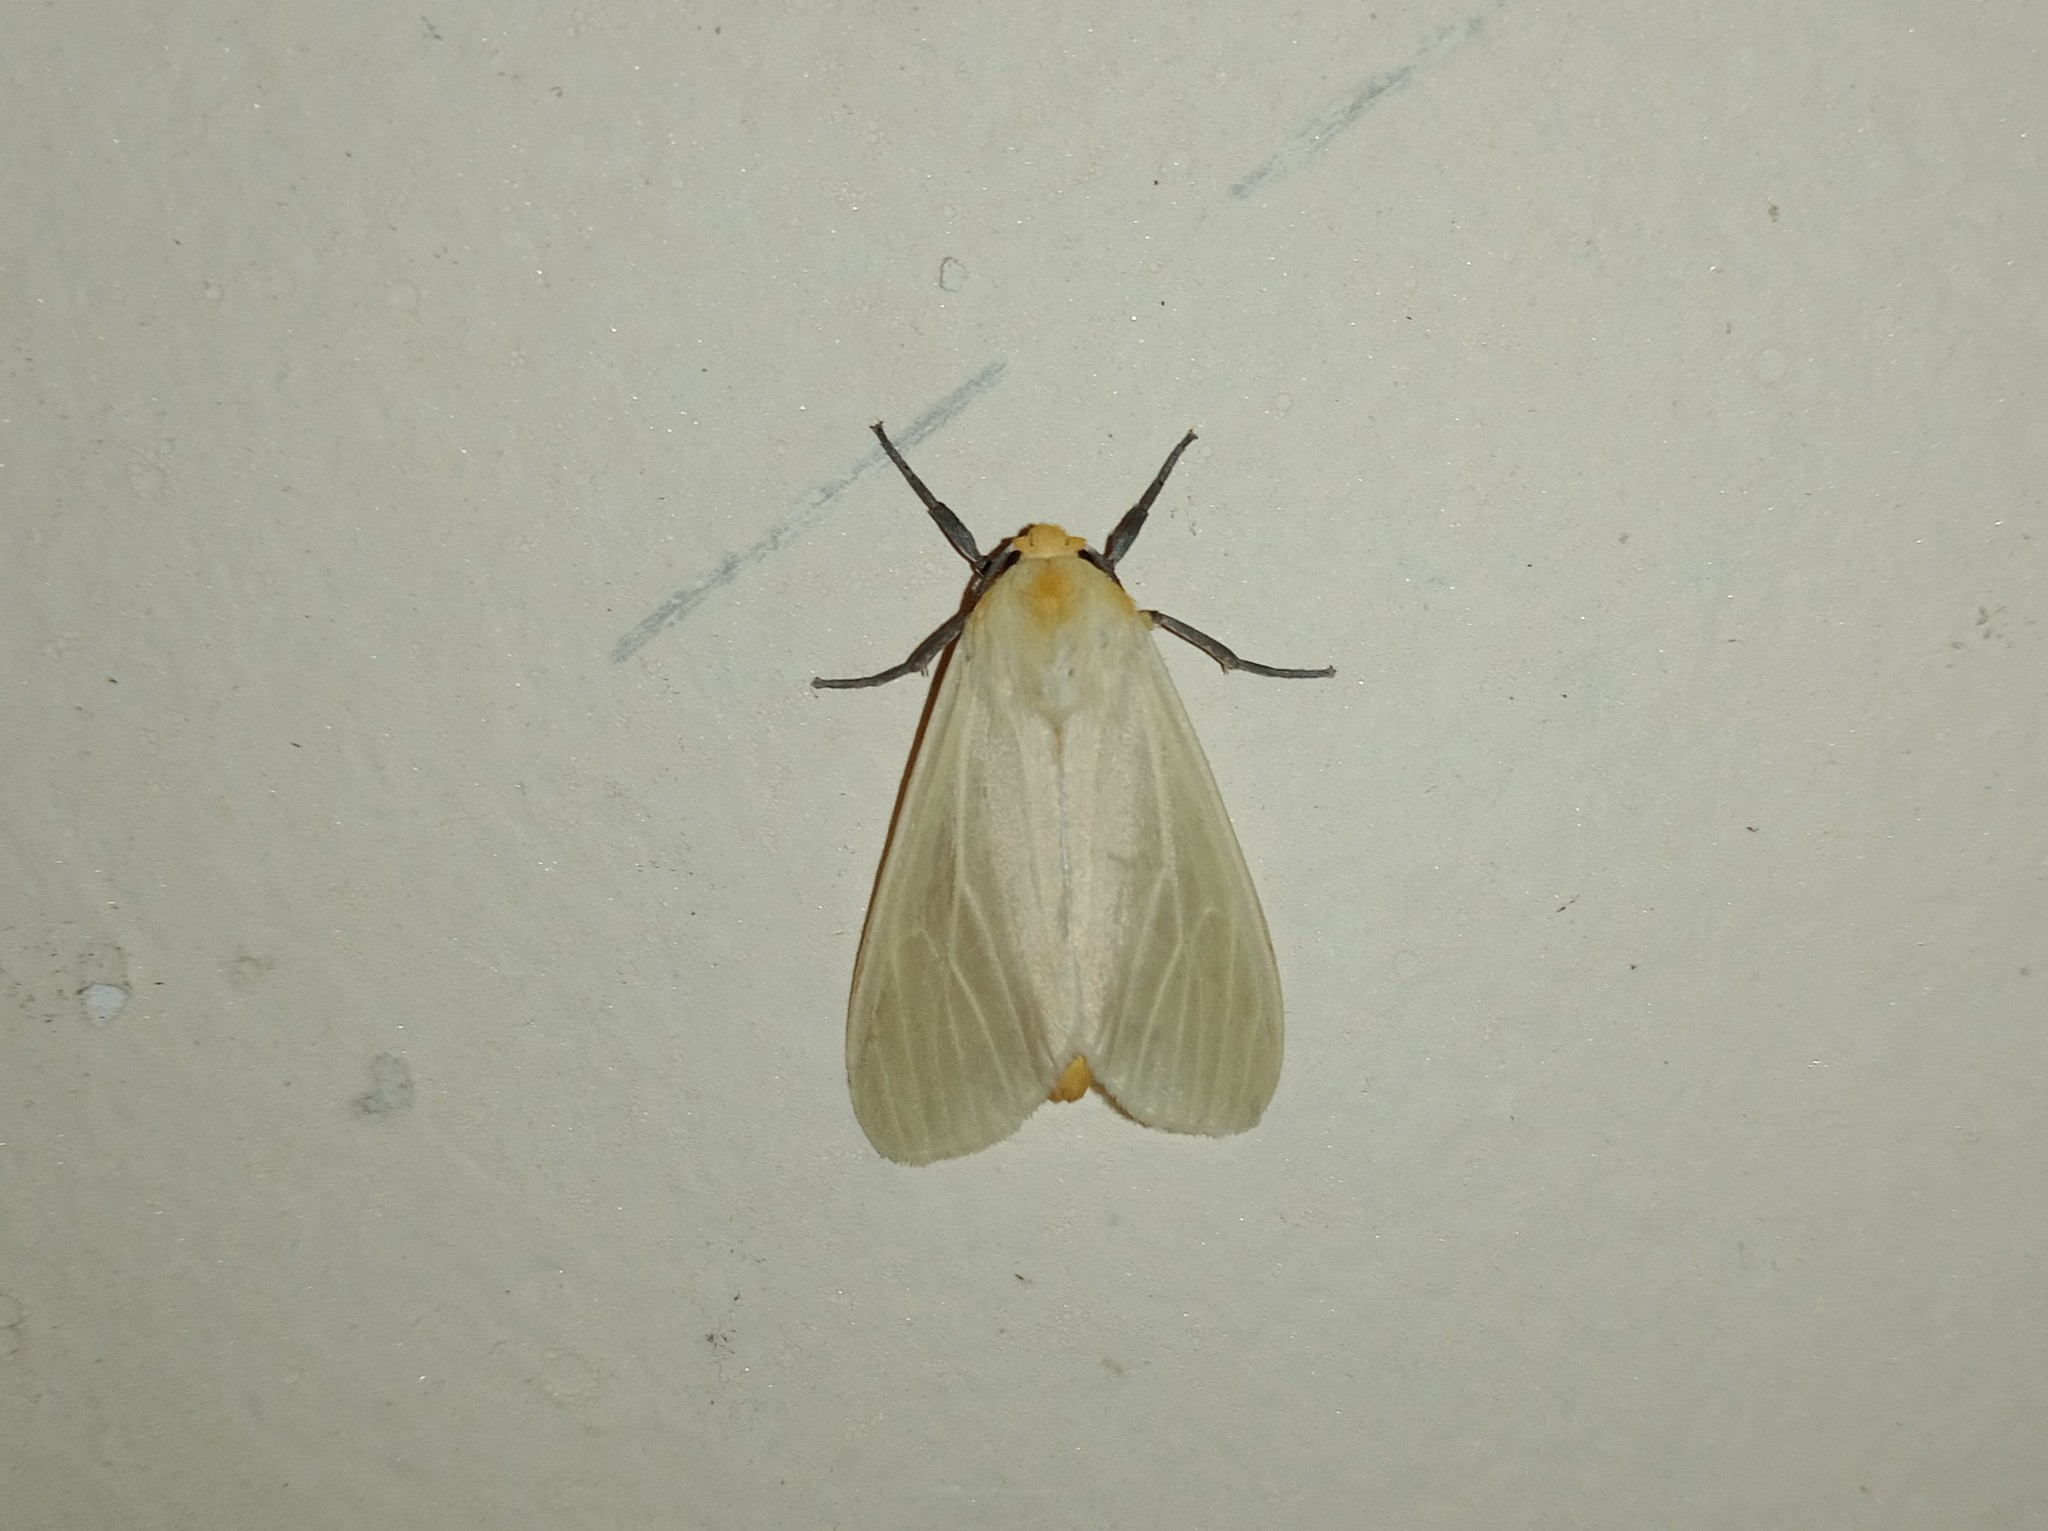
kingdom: Animalia
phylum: Arthropoda
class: Insecta
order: Lepidoptera
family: Erebidae
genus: Pareuchaetes
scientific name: Pareuchaetes pseudoinsulata
